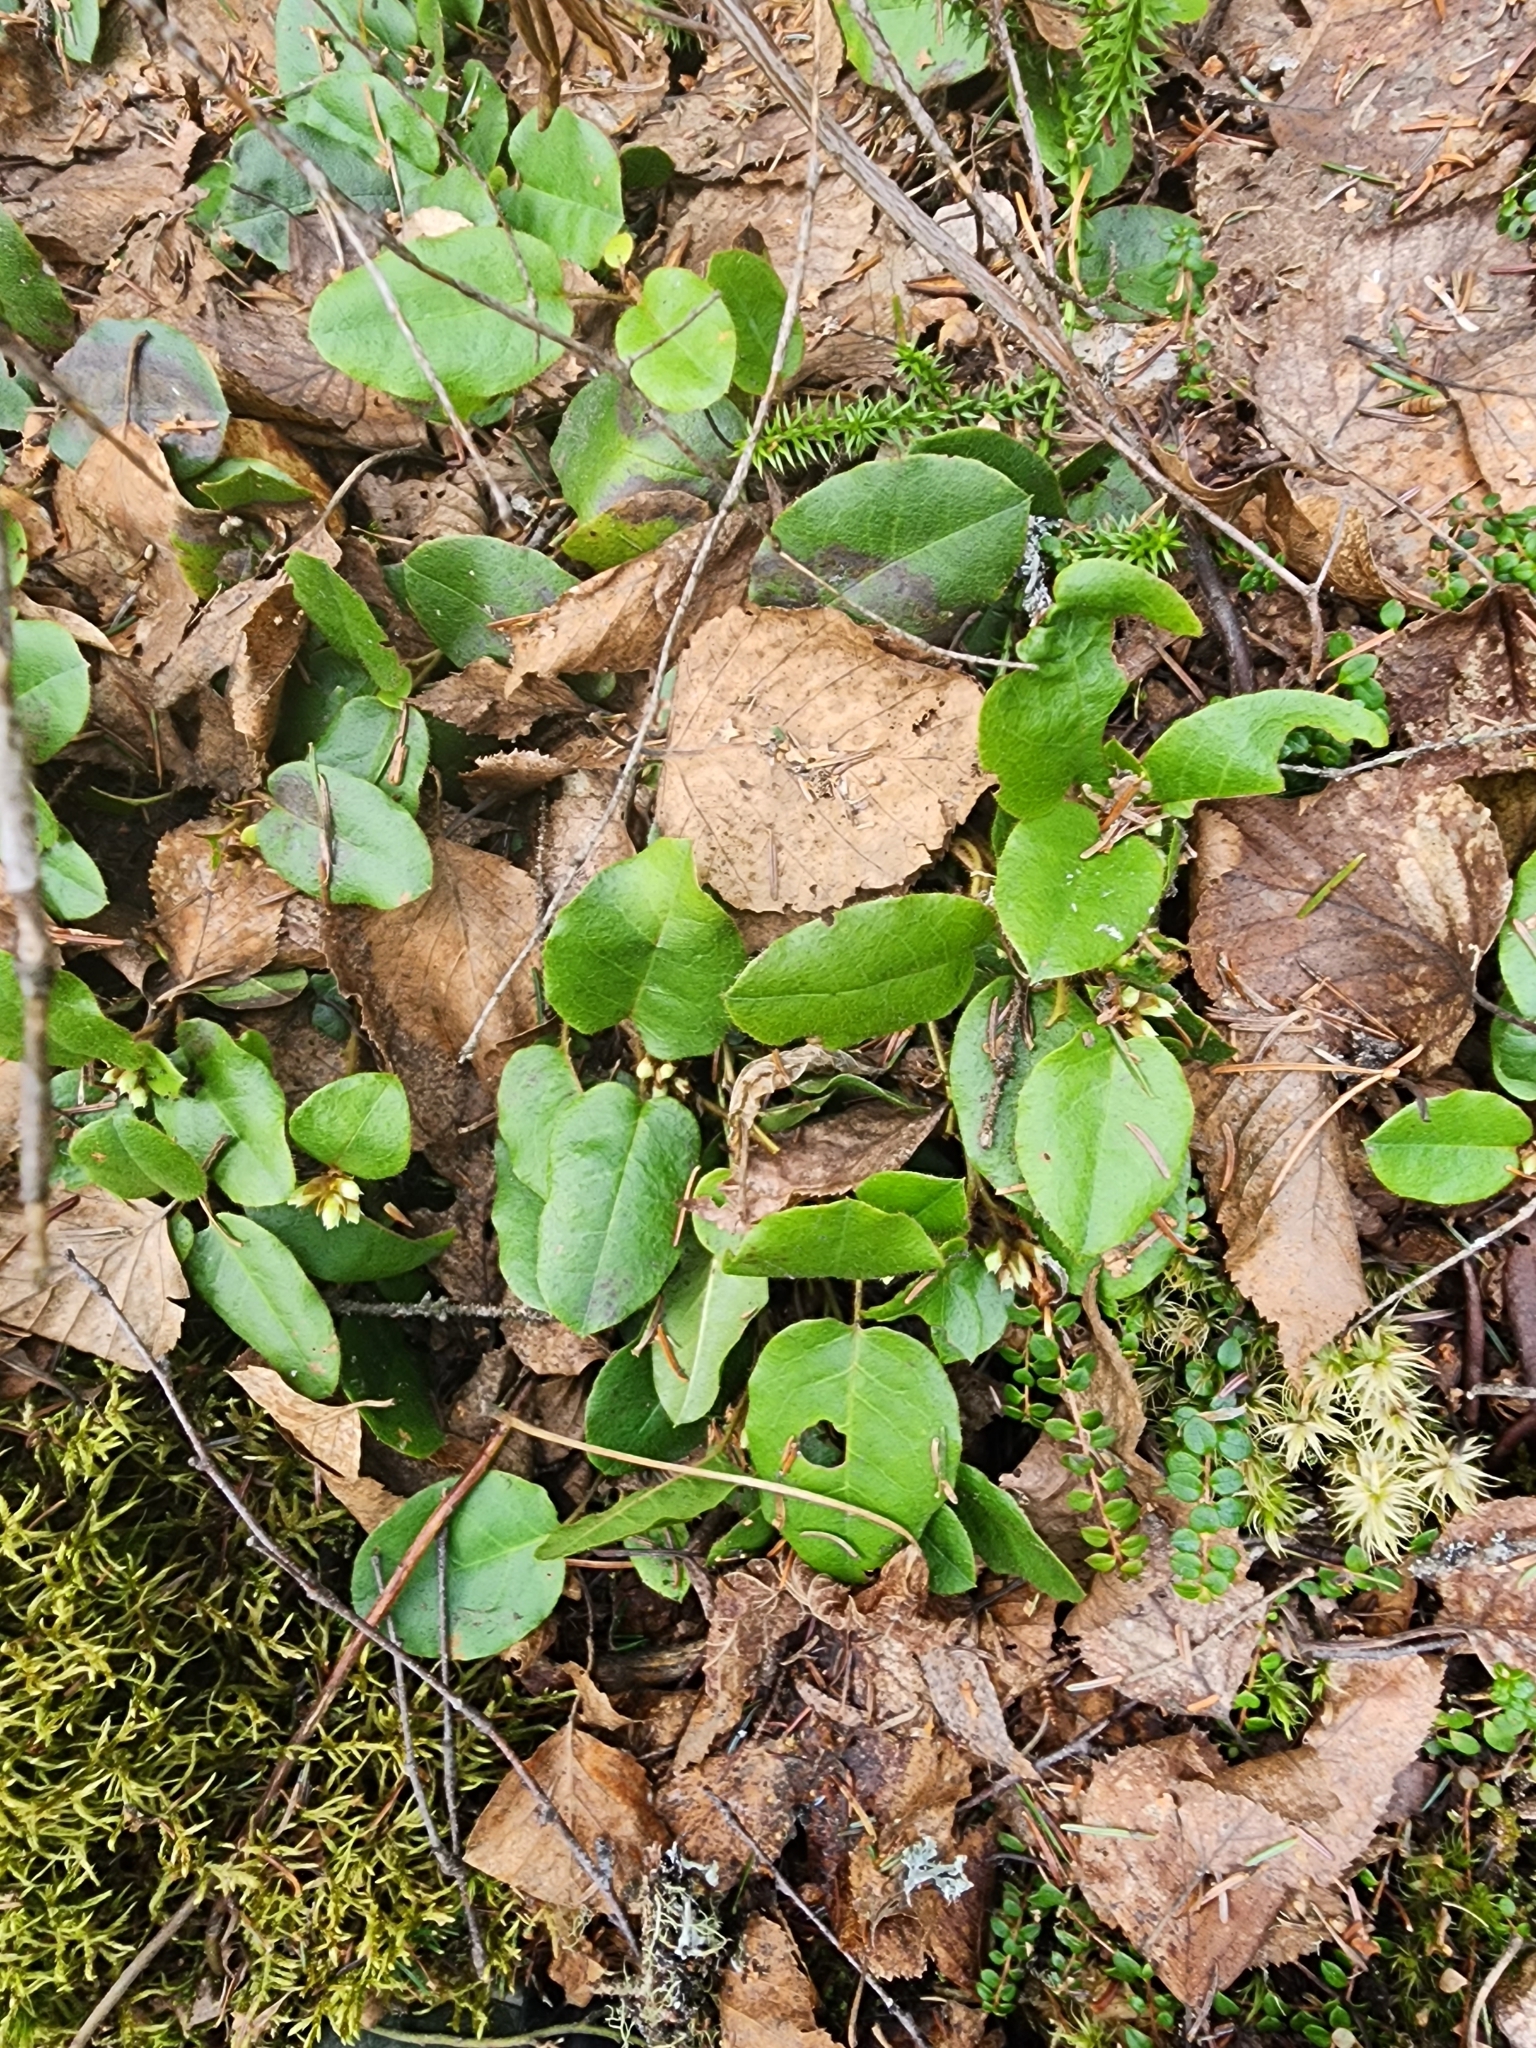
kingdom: Plantae
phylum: Tracheophyta
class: Magnoliopsida
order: Ericales
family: Ericaceae
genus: Epigaea
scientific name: Epigaea repens
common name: Gravelroot
